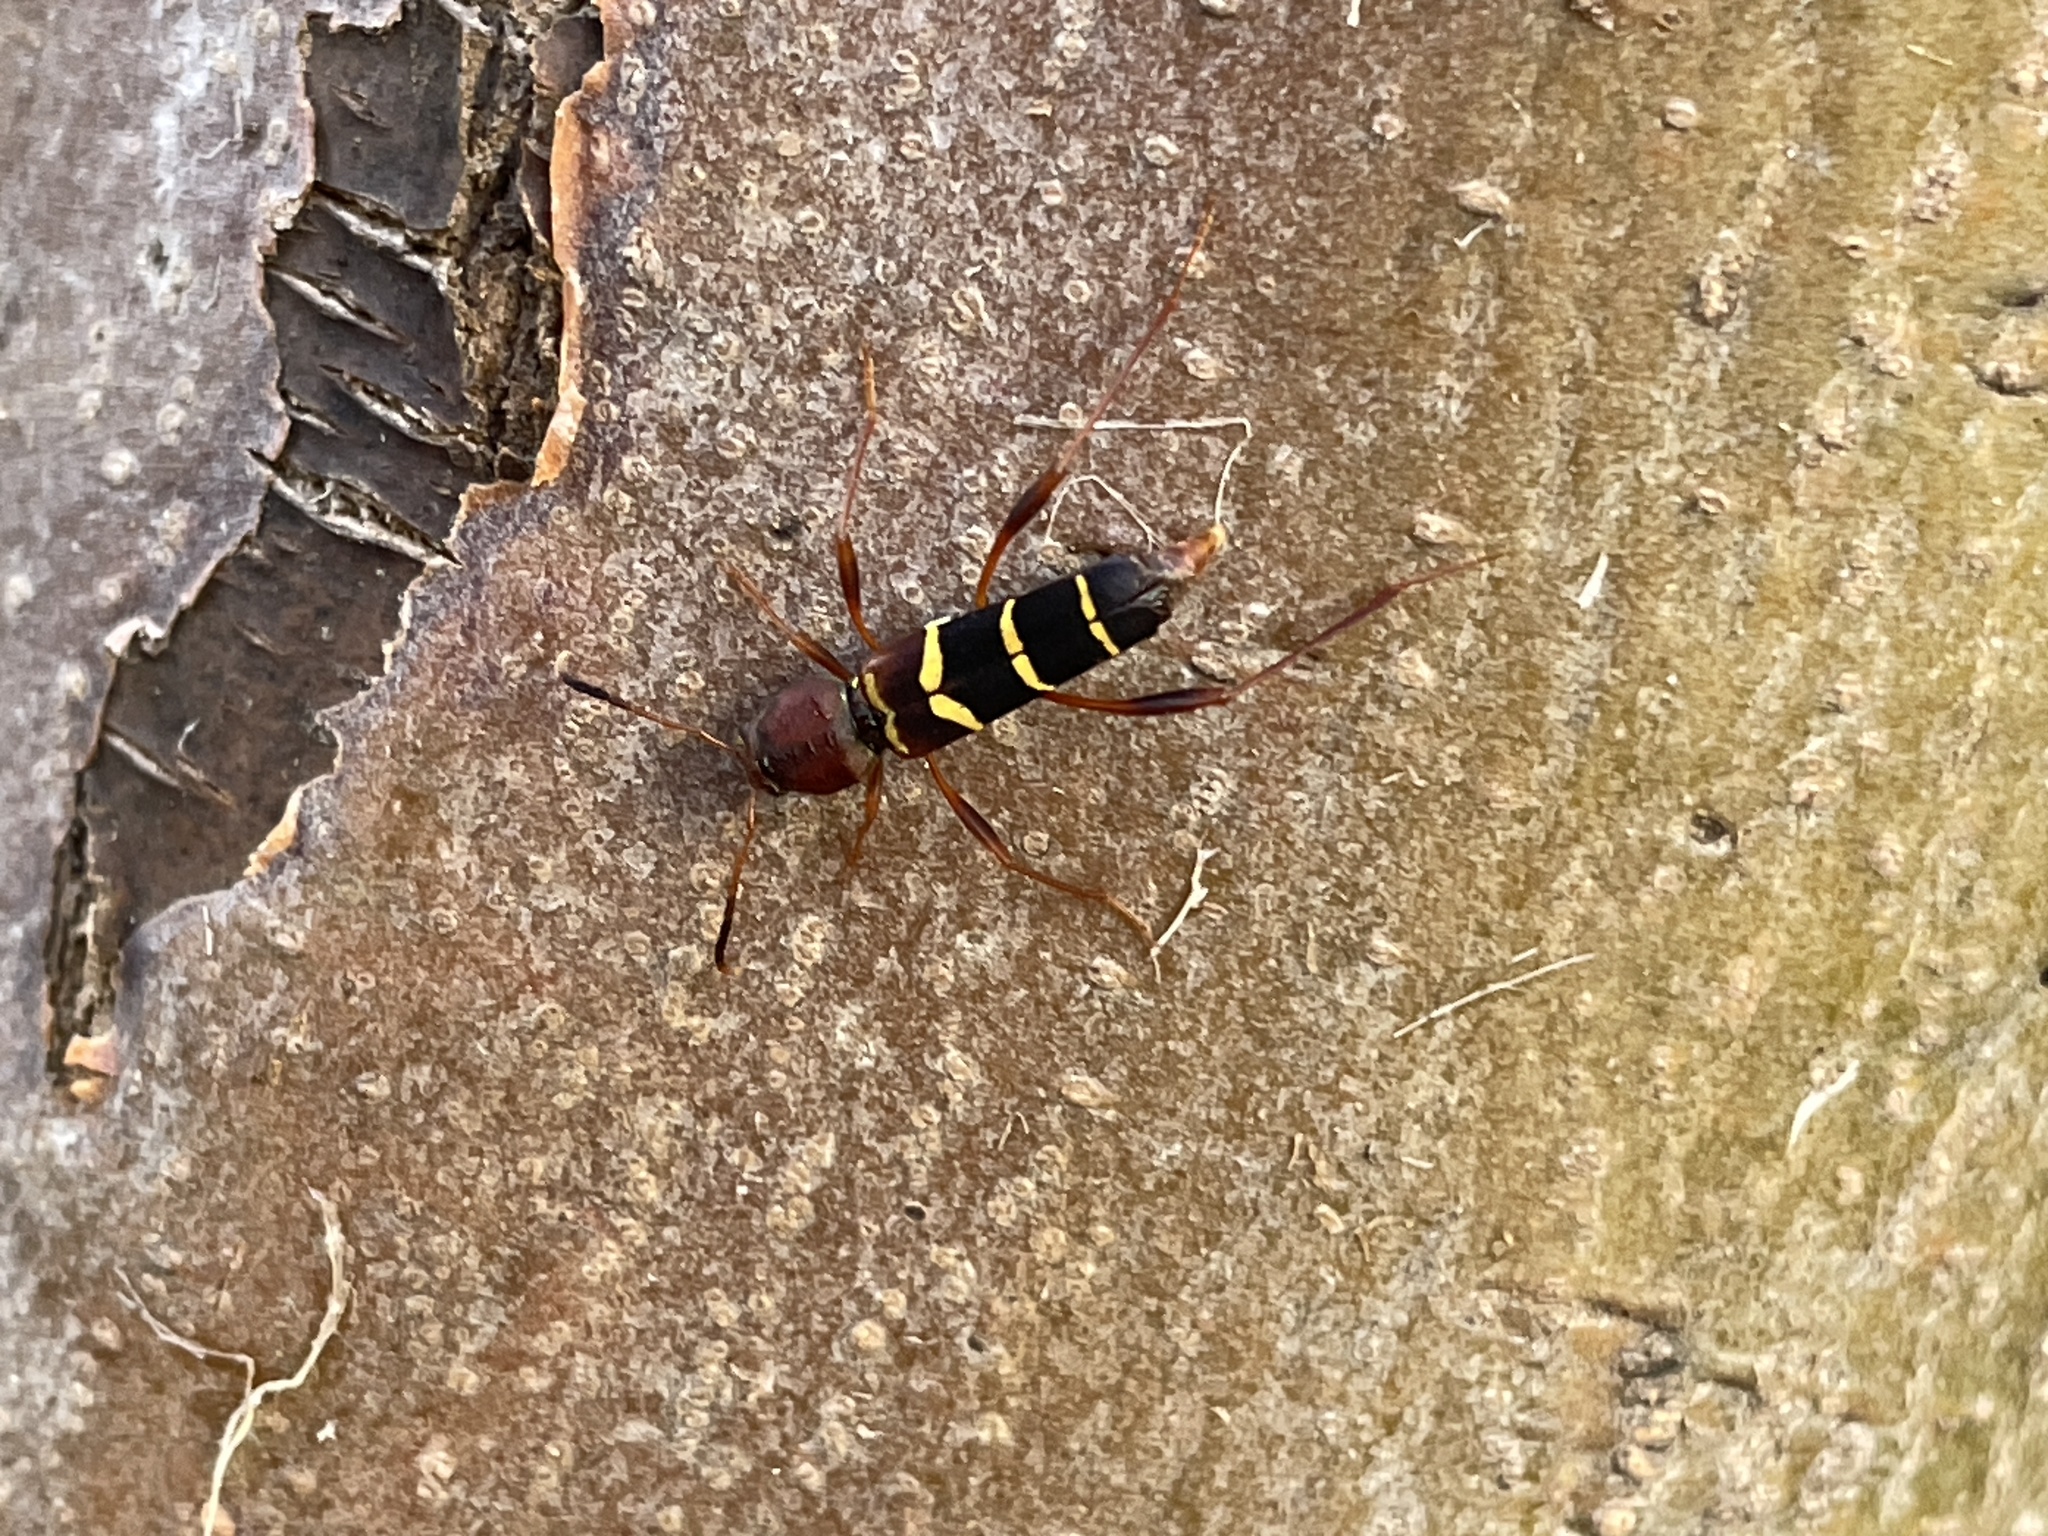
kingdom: Animalia
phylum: Arthropoda
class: Insecta
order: Coleoptera
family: Cerambycidae
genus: Neoclytus
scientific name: Neoclytus acuminatus
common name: Read-headed ash borer
